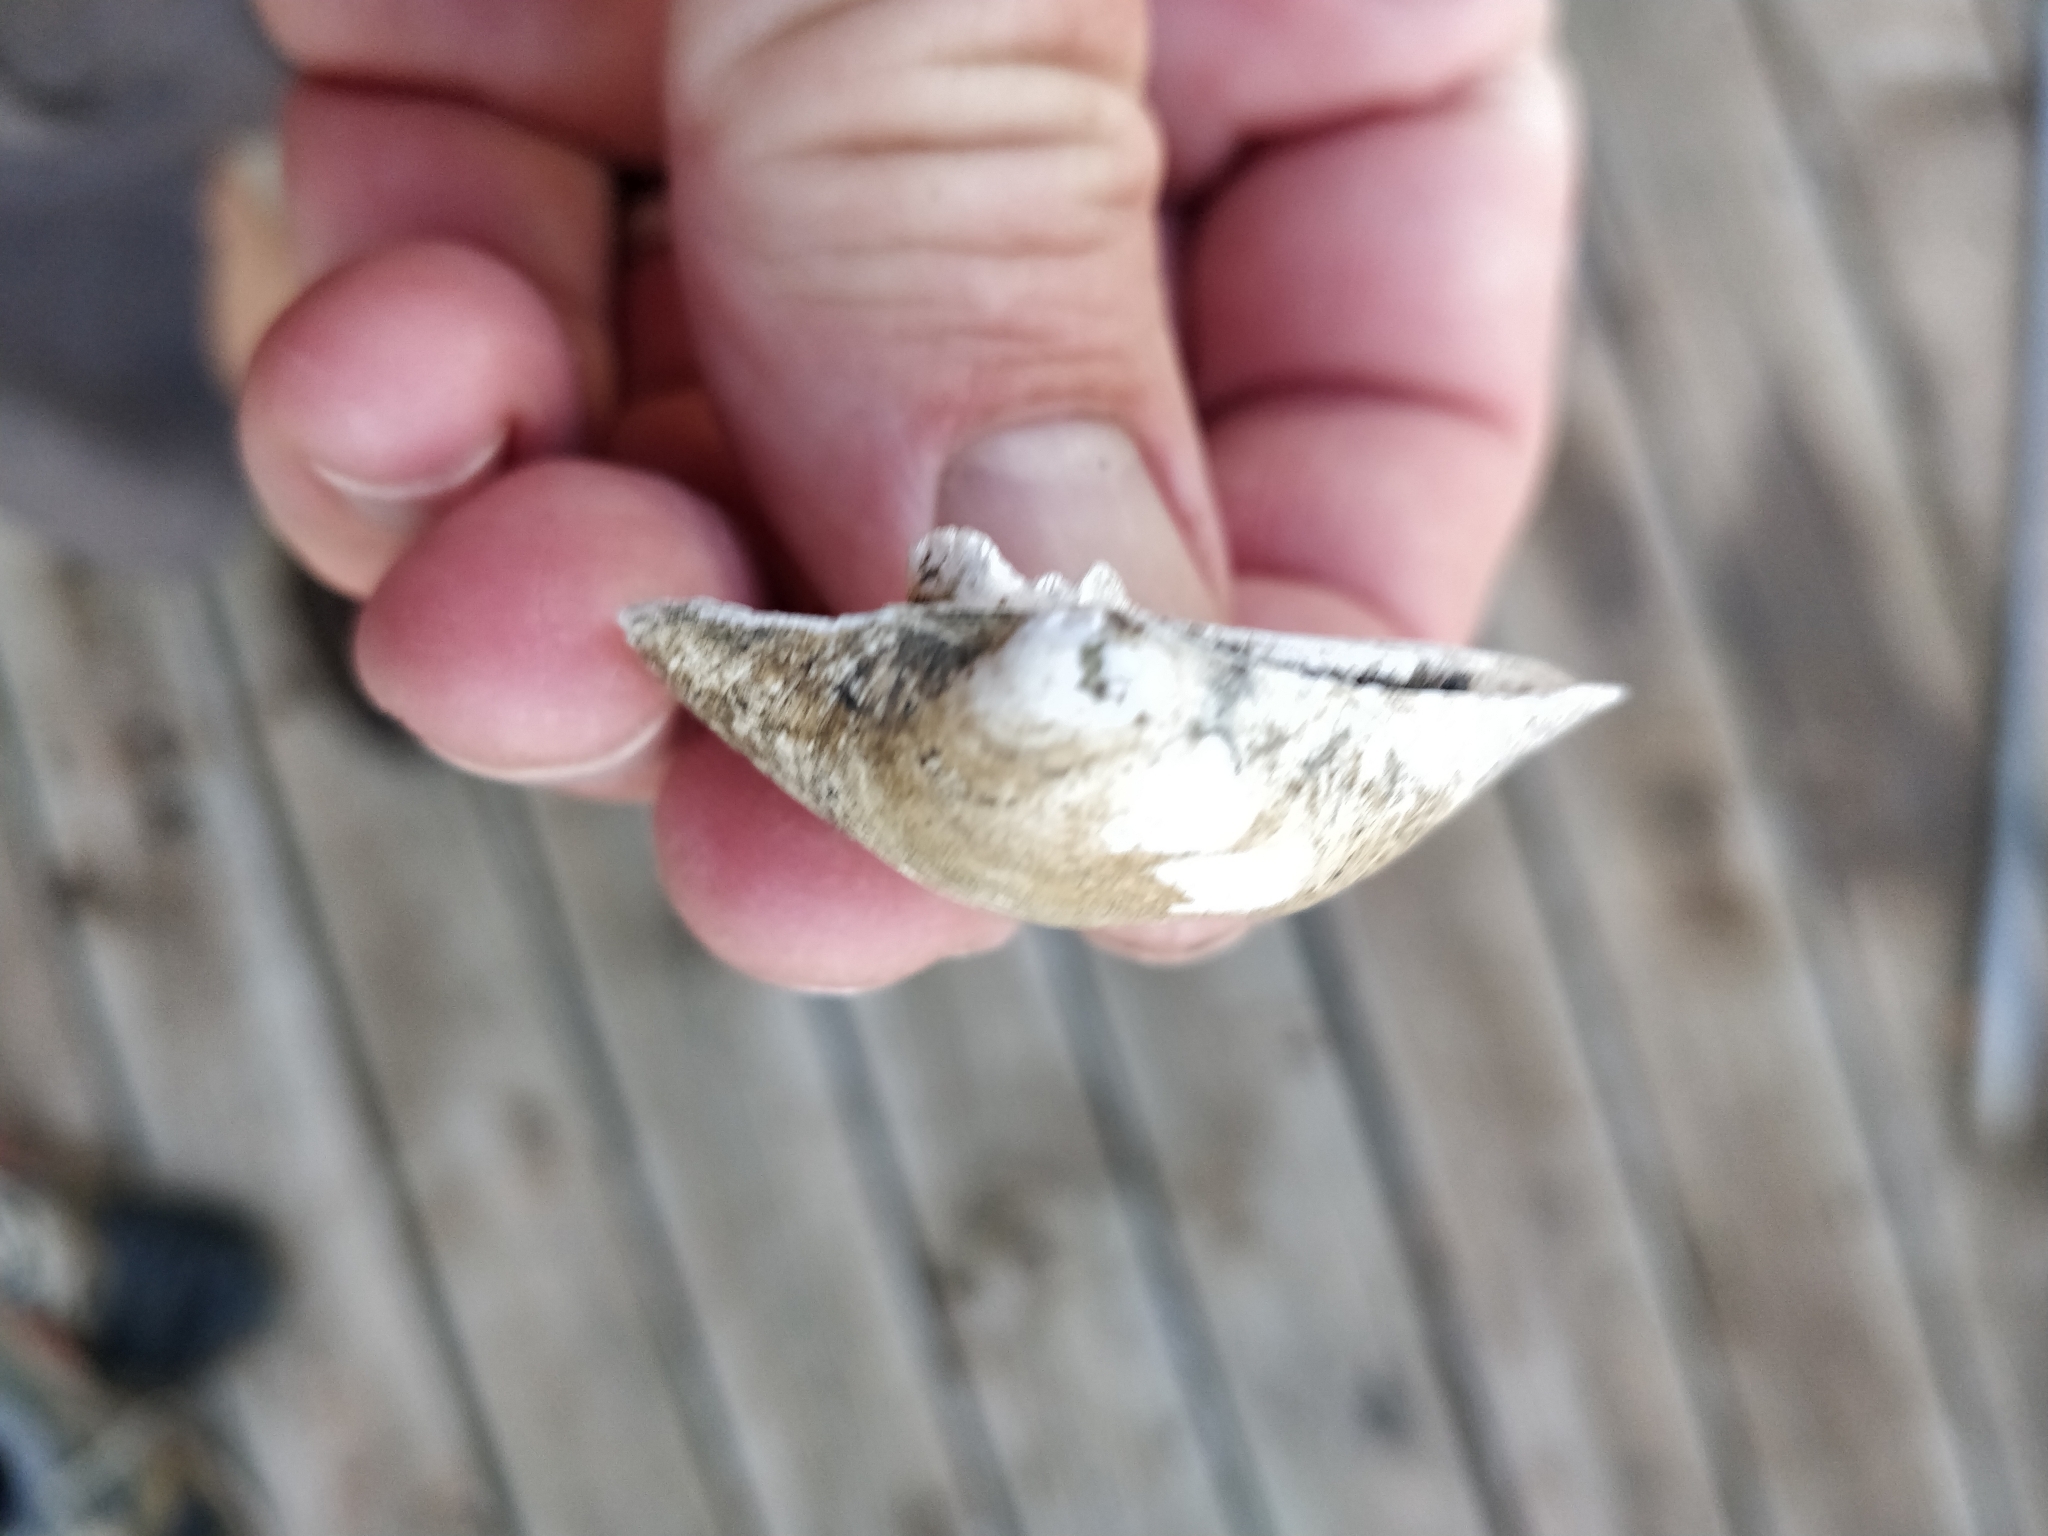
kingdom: Animalia
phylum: Mollusca
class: Bivalvia
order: Unionida
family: Unionidae
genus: Cyclonaias
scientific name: Cyclonaias pustulosa
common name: Pimpleback
